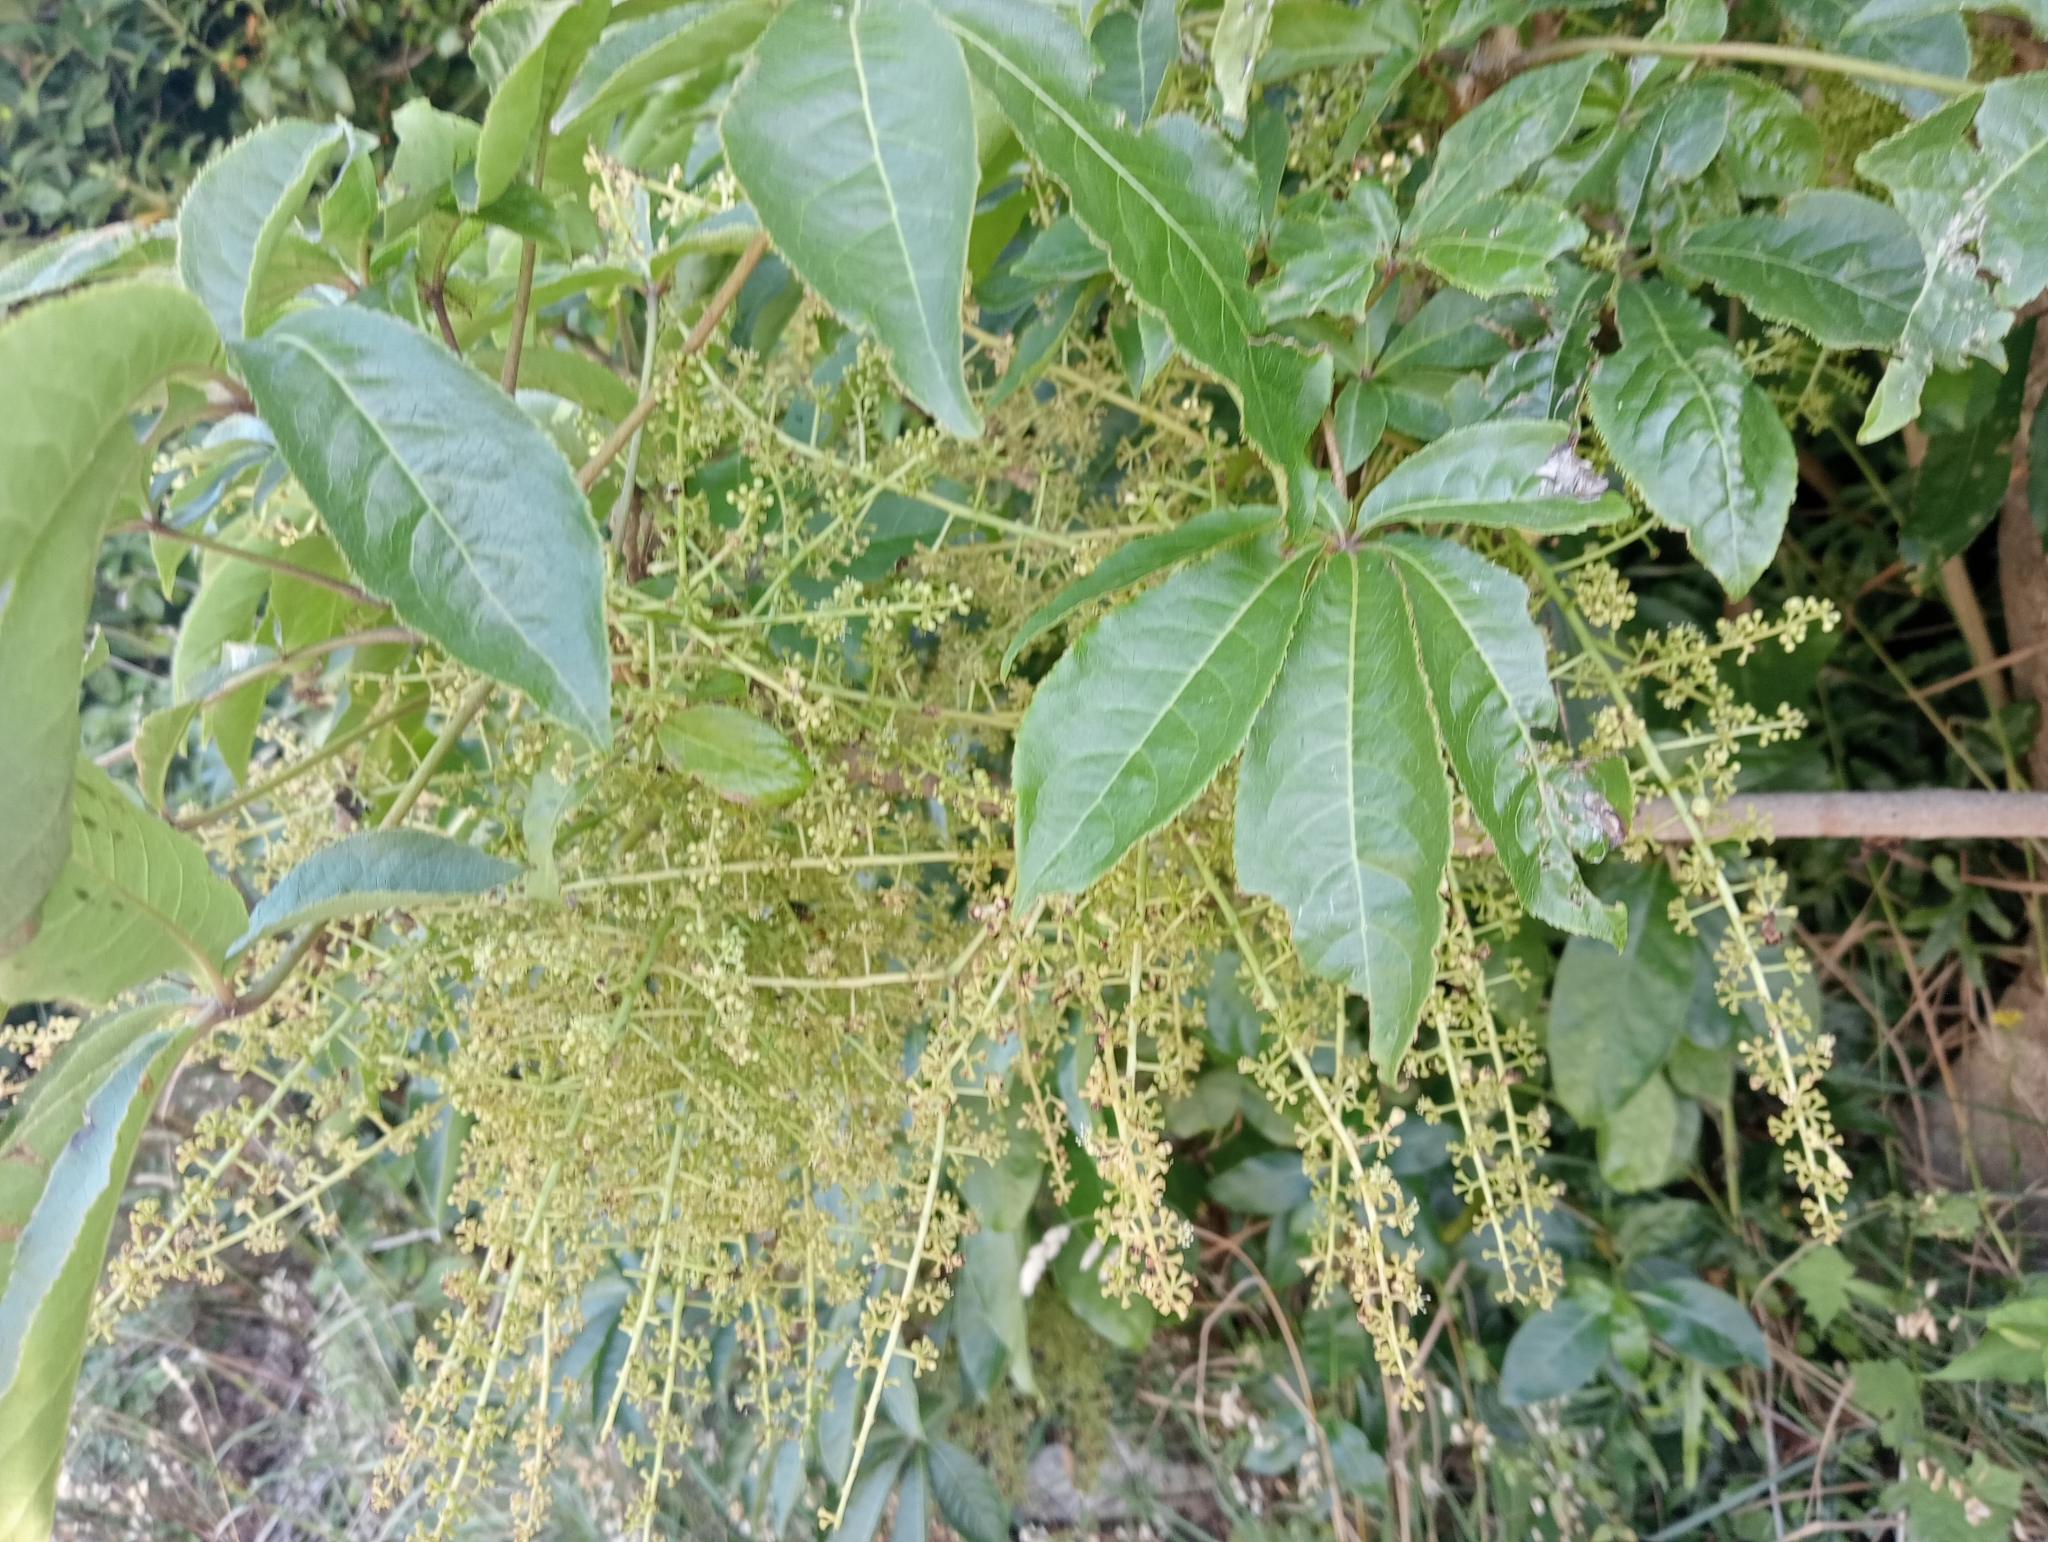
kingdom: Plantae
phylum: Tracheophyta
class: Magnoliopsida
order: Apiales
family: Araliaceae
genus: Schefflera
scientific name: Schefflera digitata
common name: Pate
